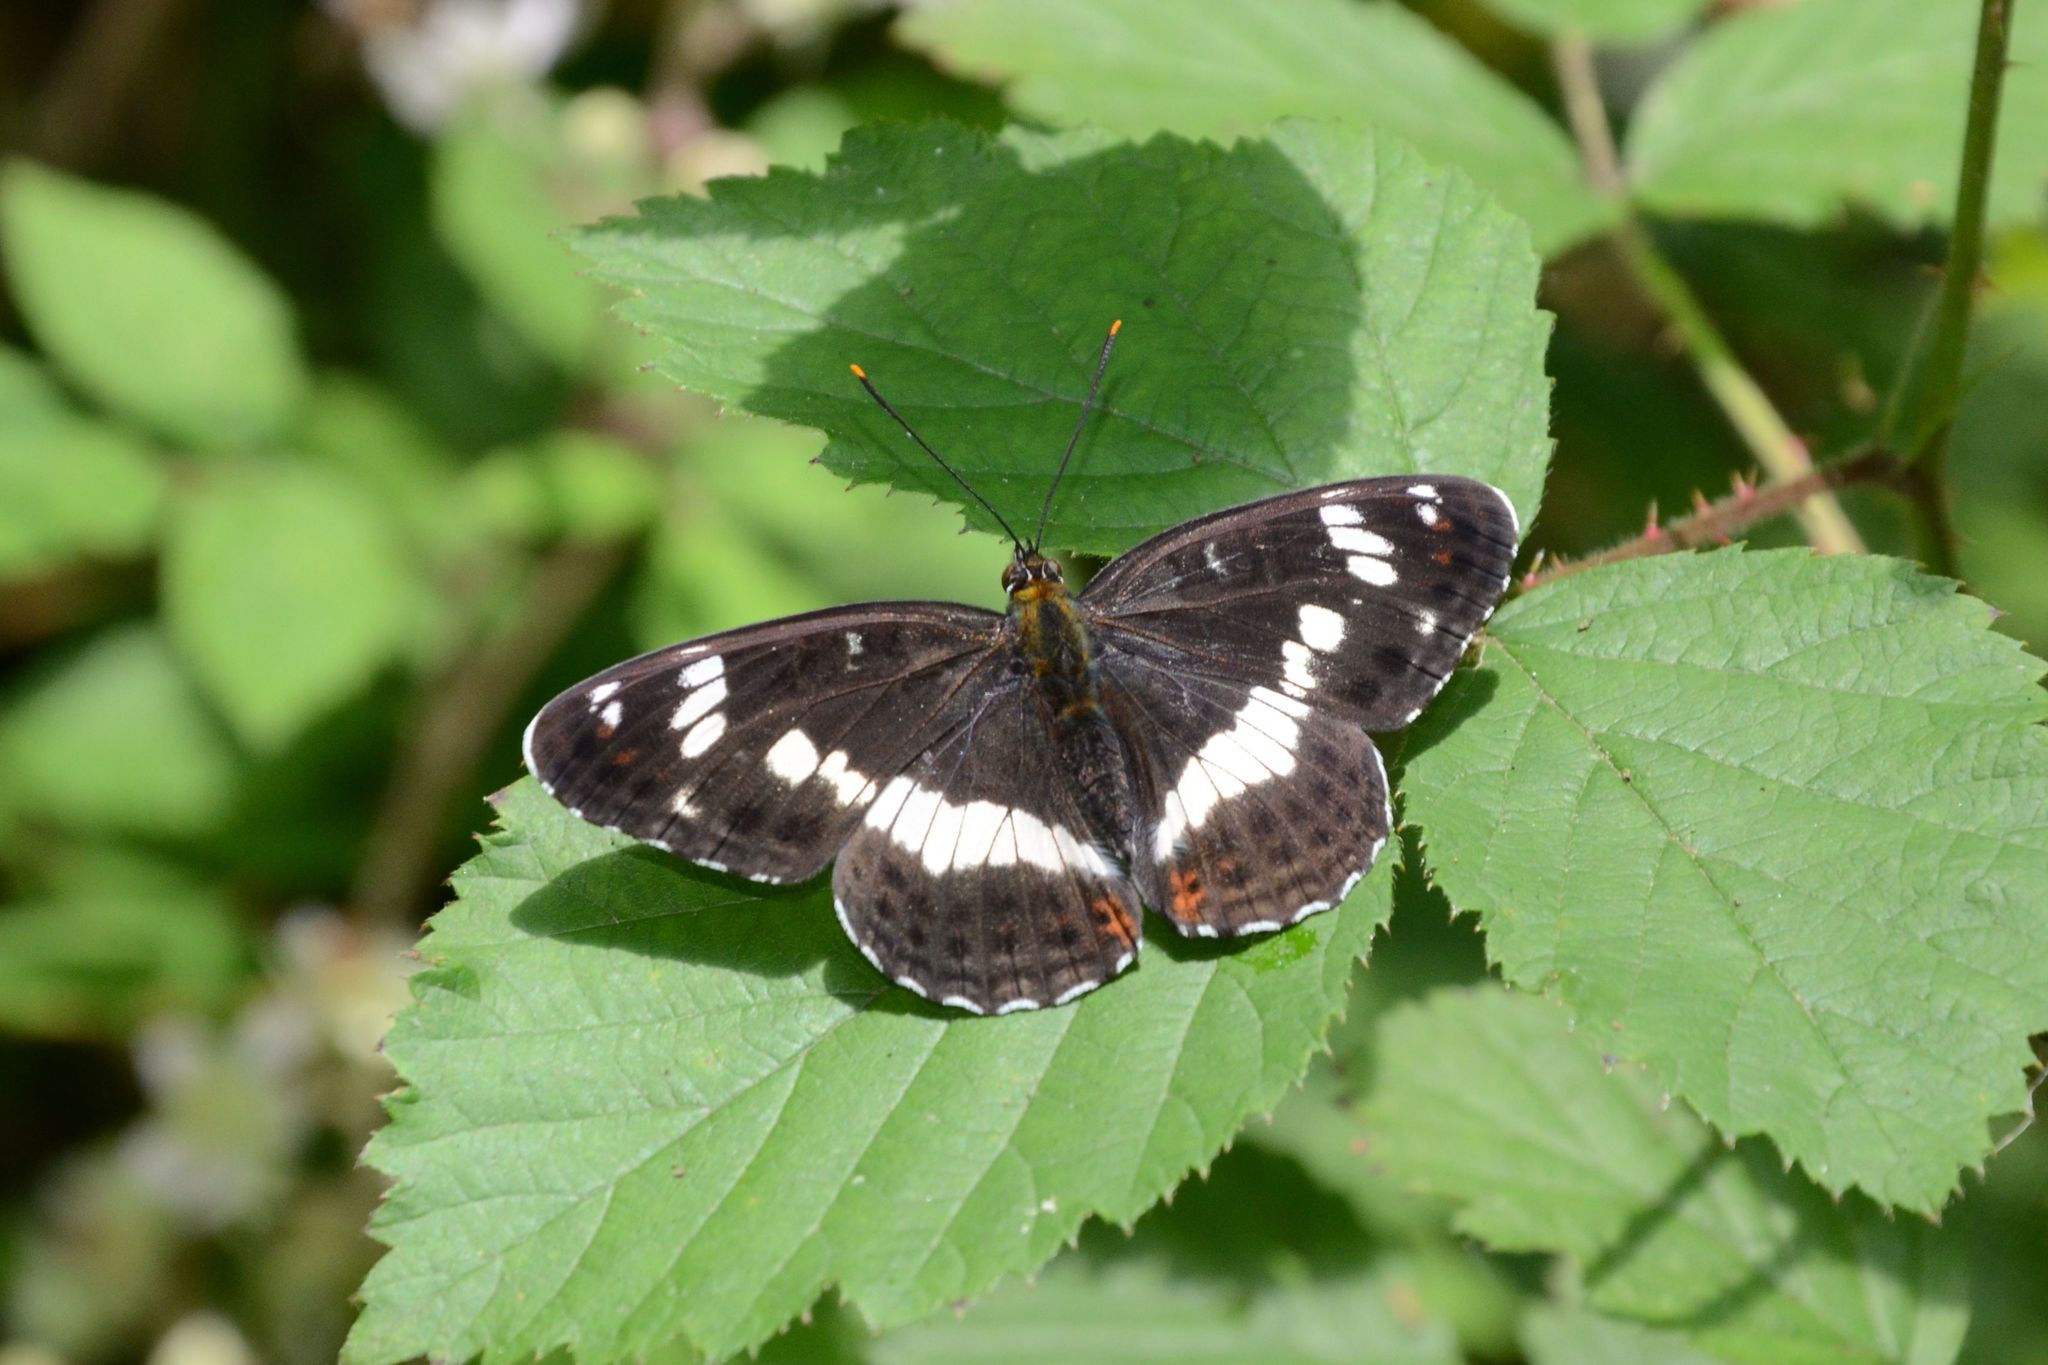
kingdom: Animalia
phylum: Arthropoda
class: Insecta
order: Lepidoptera
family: Nymphalidae
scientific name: Nymphalidae
